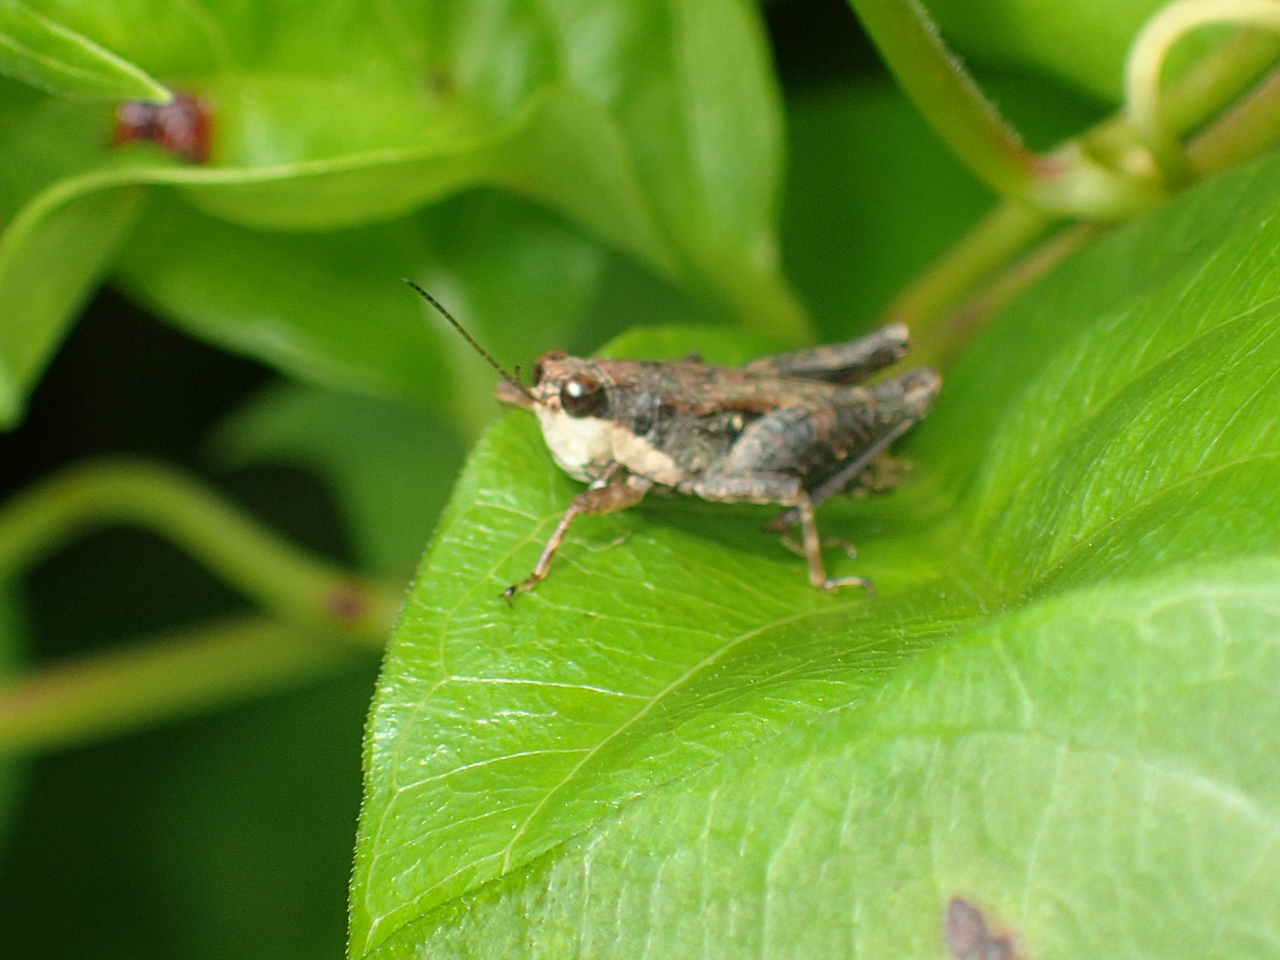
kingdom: Animalia
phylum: Arthropoda
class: Insecta
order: Orthoptera
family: Tetrigidae
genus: Tettigidea
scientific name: Tettigidea laterale
